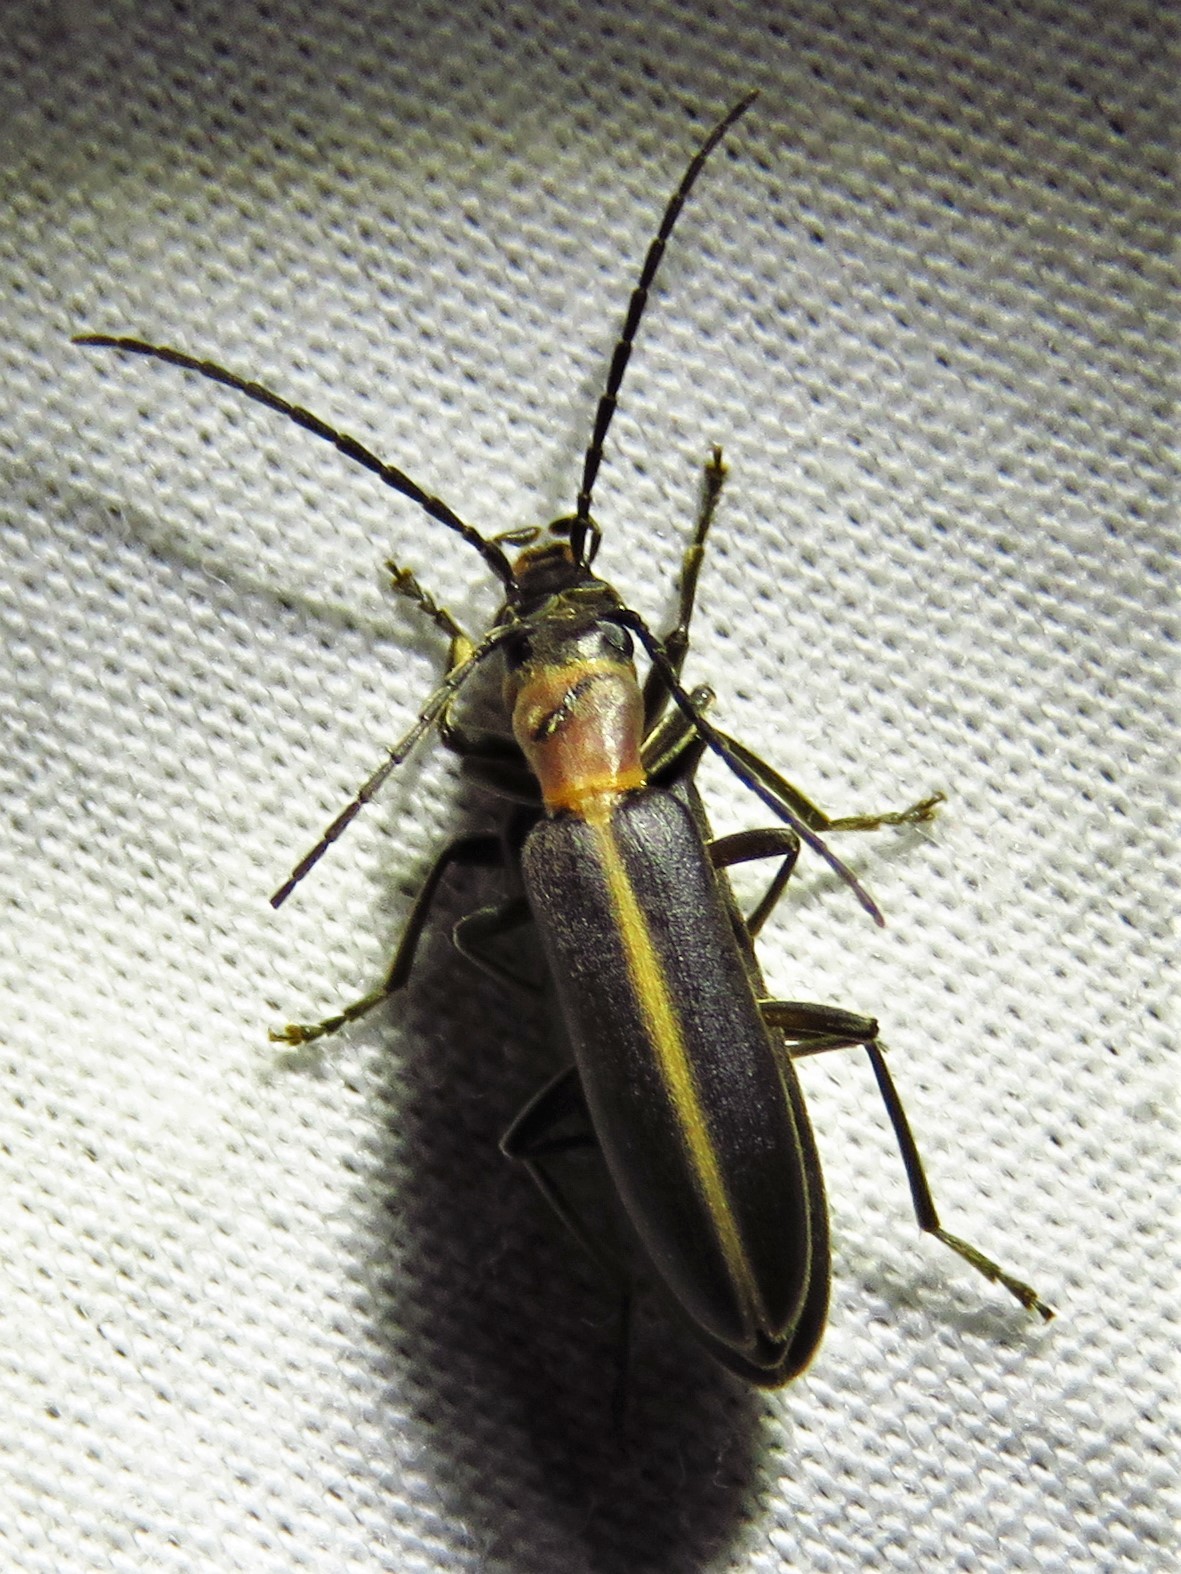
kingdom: Animalia
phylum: Arthropoda
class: Insecta
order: Coleoptera
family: Oedemeridae
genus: Oxycopis
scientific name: Oxycopis mimetica
